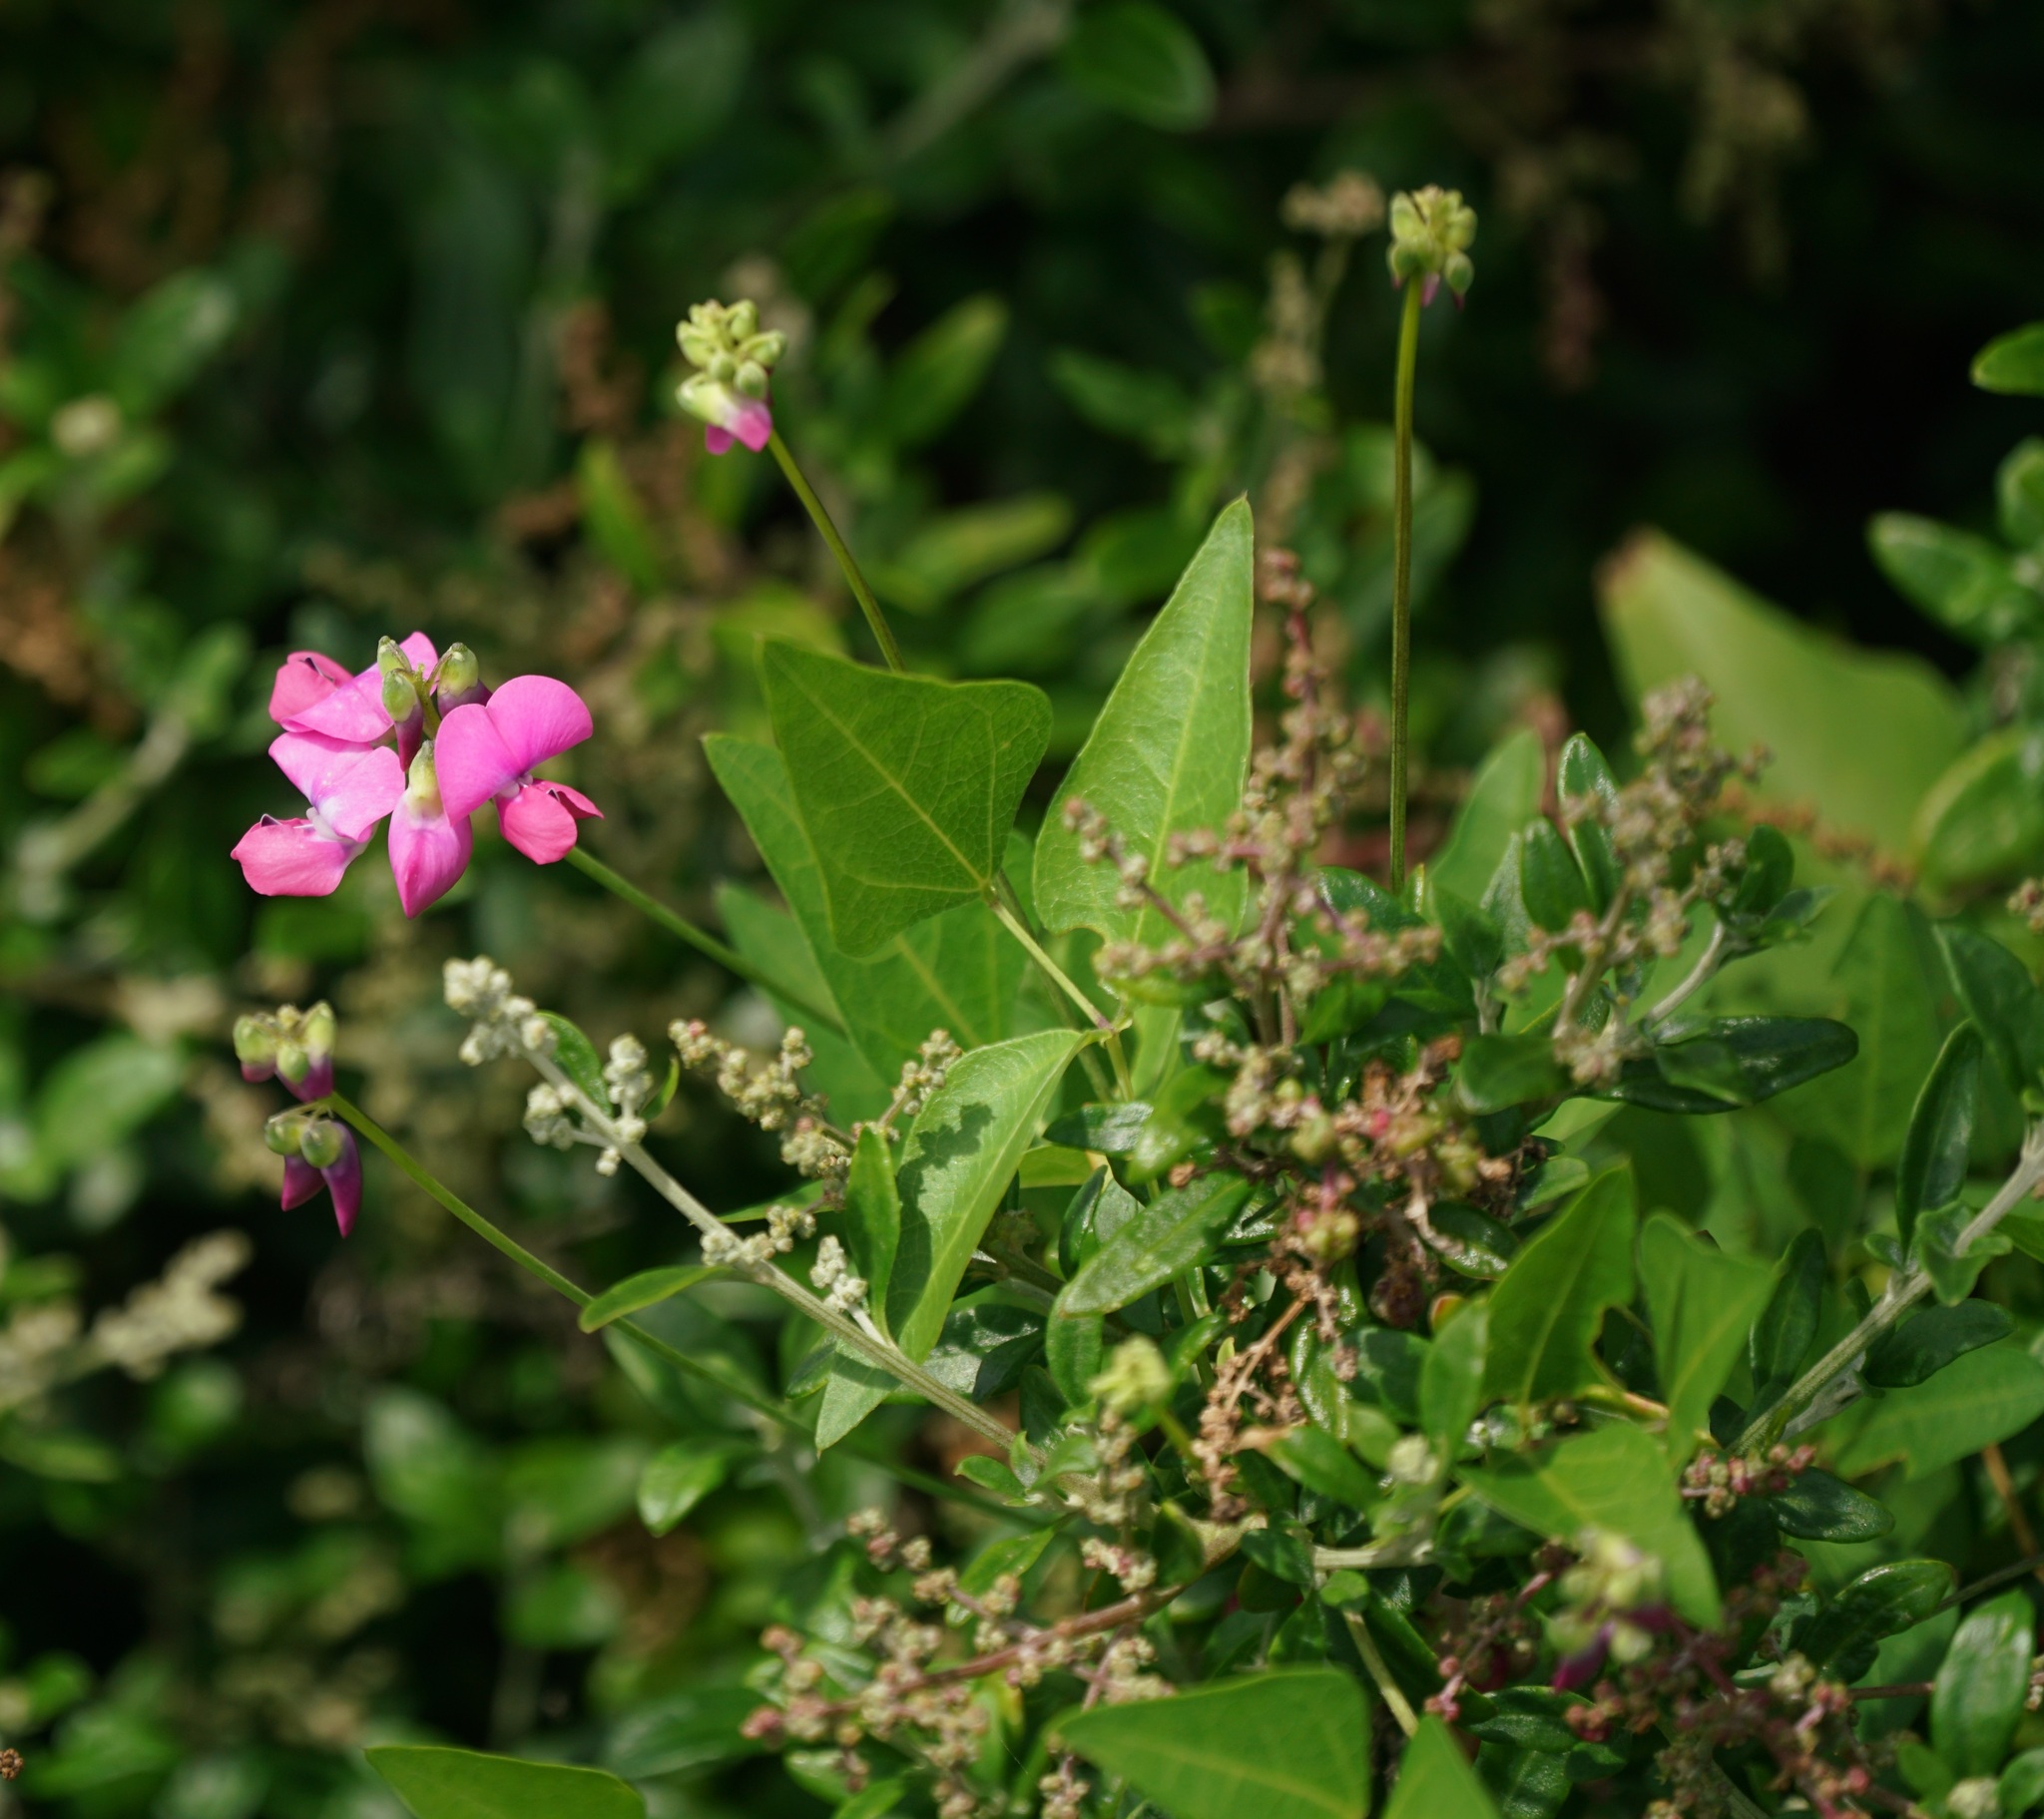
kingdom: Plantae
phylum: Tracheophyta
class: Magnoliopsida
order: Fabales
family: Fabaceae
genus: Dipogon
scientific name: Dipogon lignosus
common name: Okie bean
